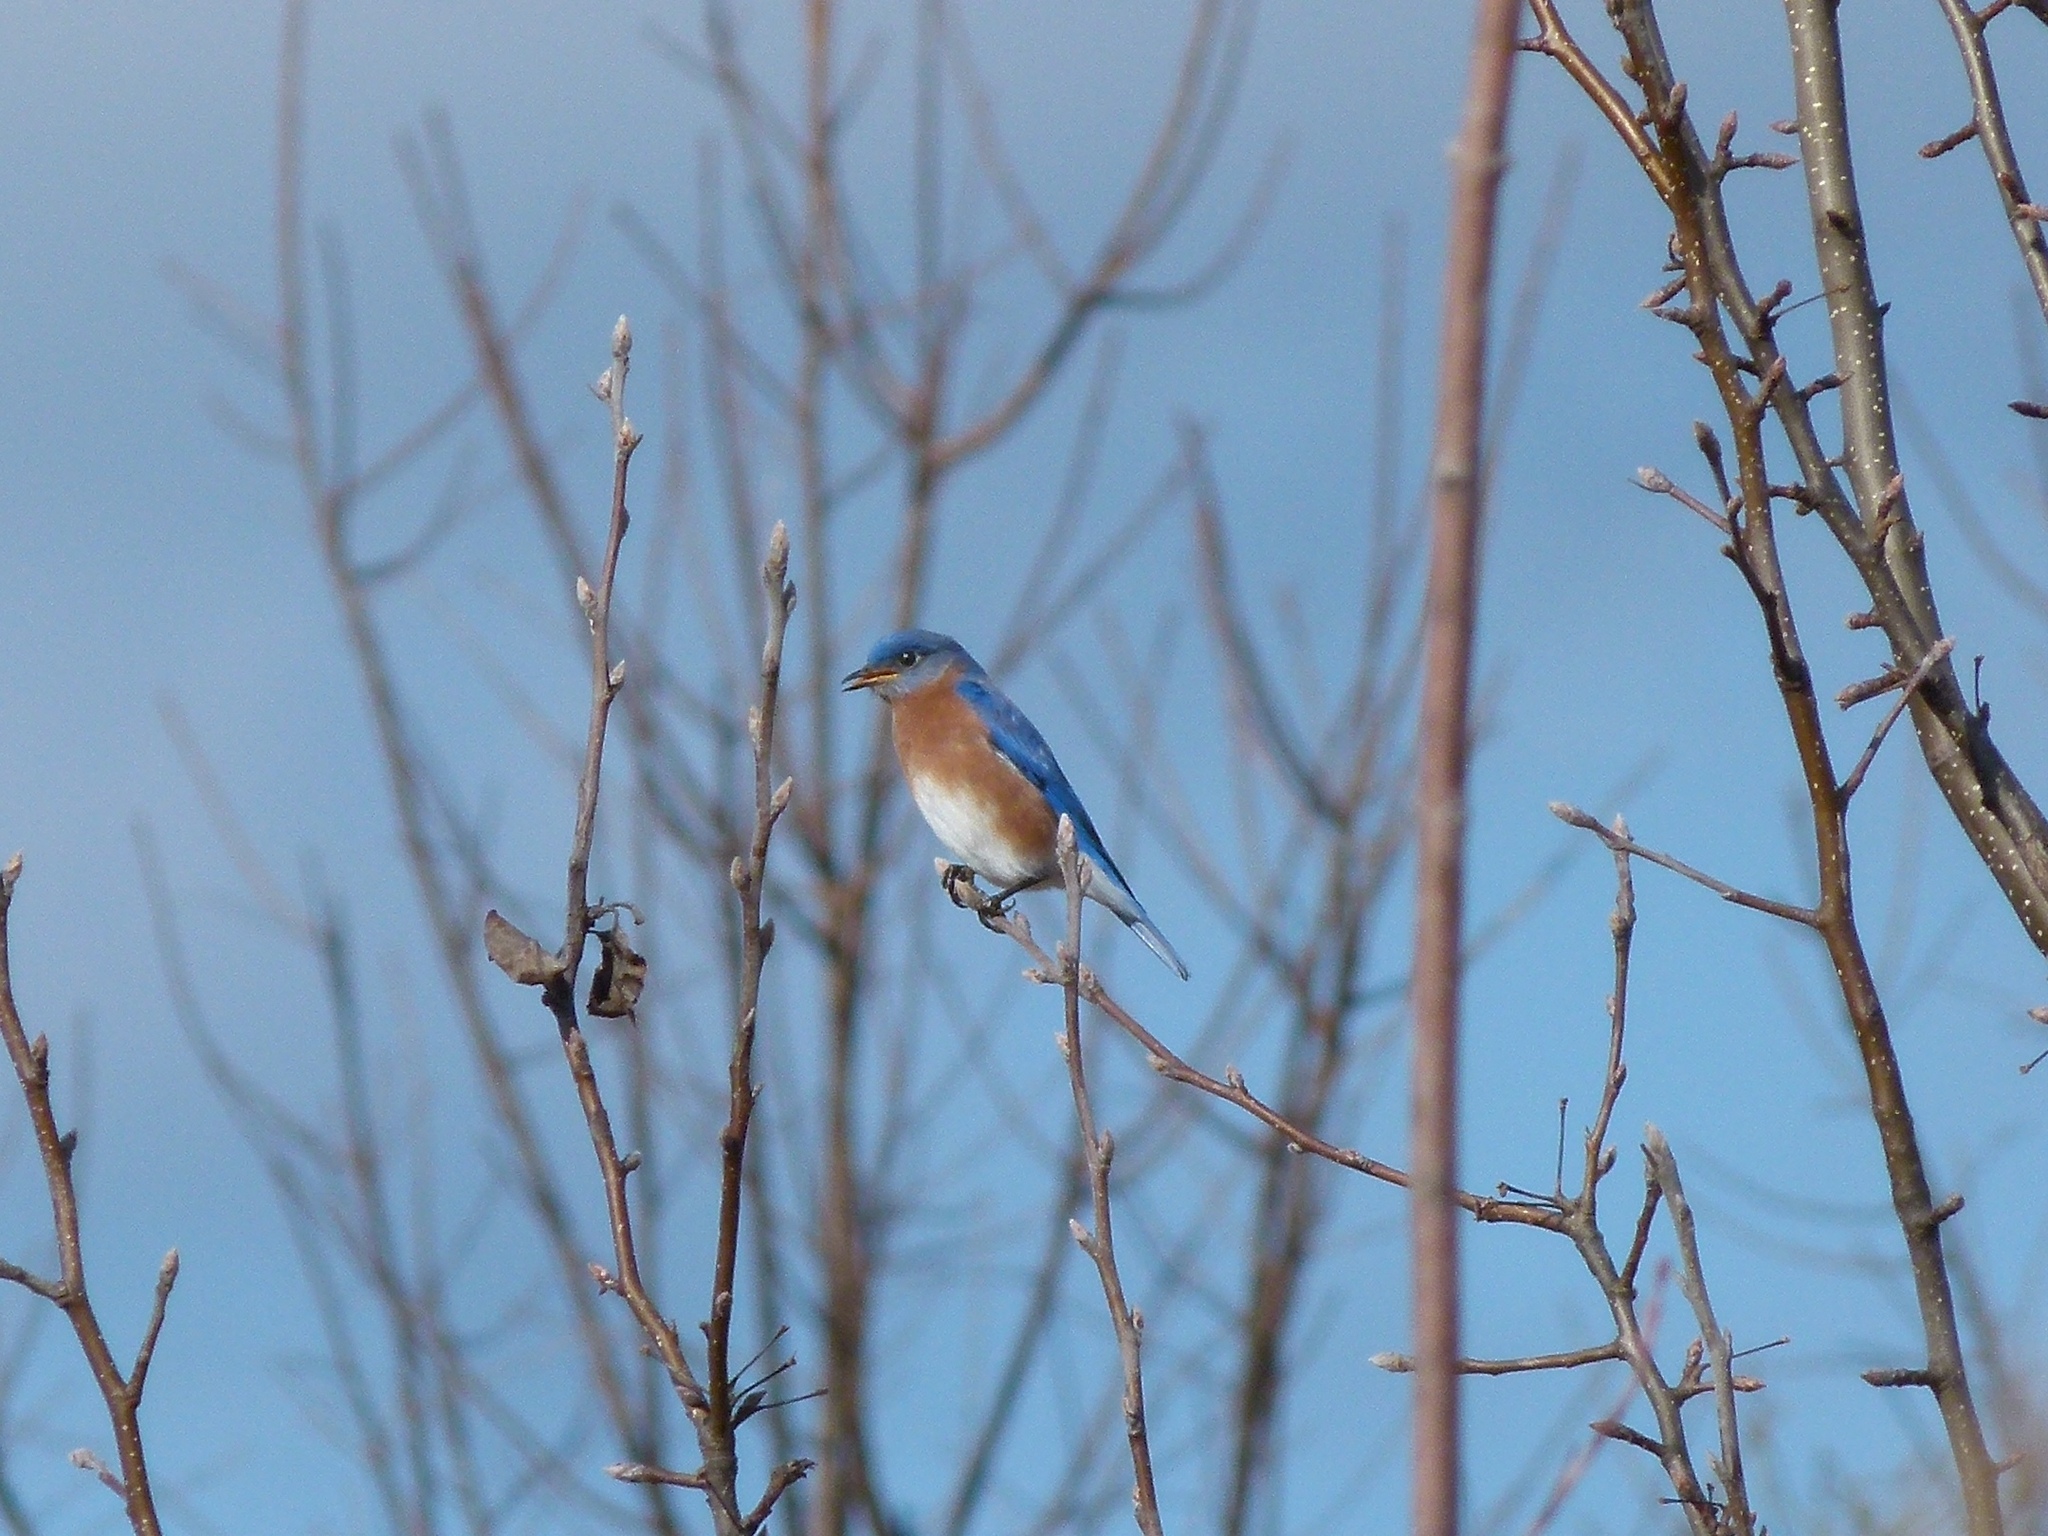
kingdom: Animalia
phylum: Chordata
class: Aves
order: Passeriformes
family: Turdidae
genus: Sialia
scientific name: Sialia sialis
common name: Eastern bluebird
